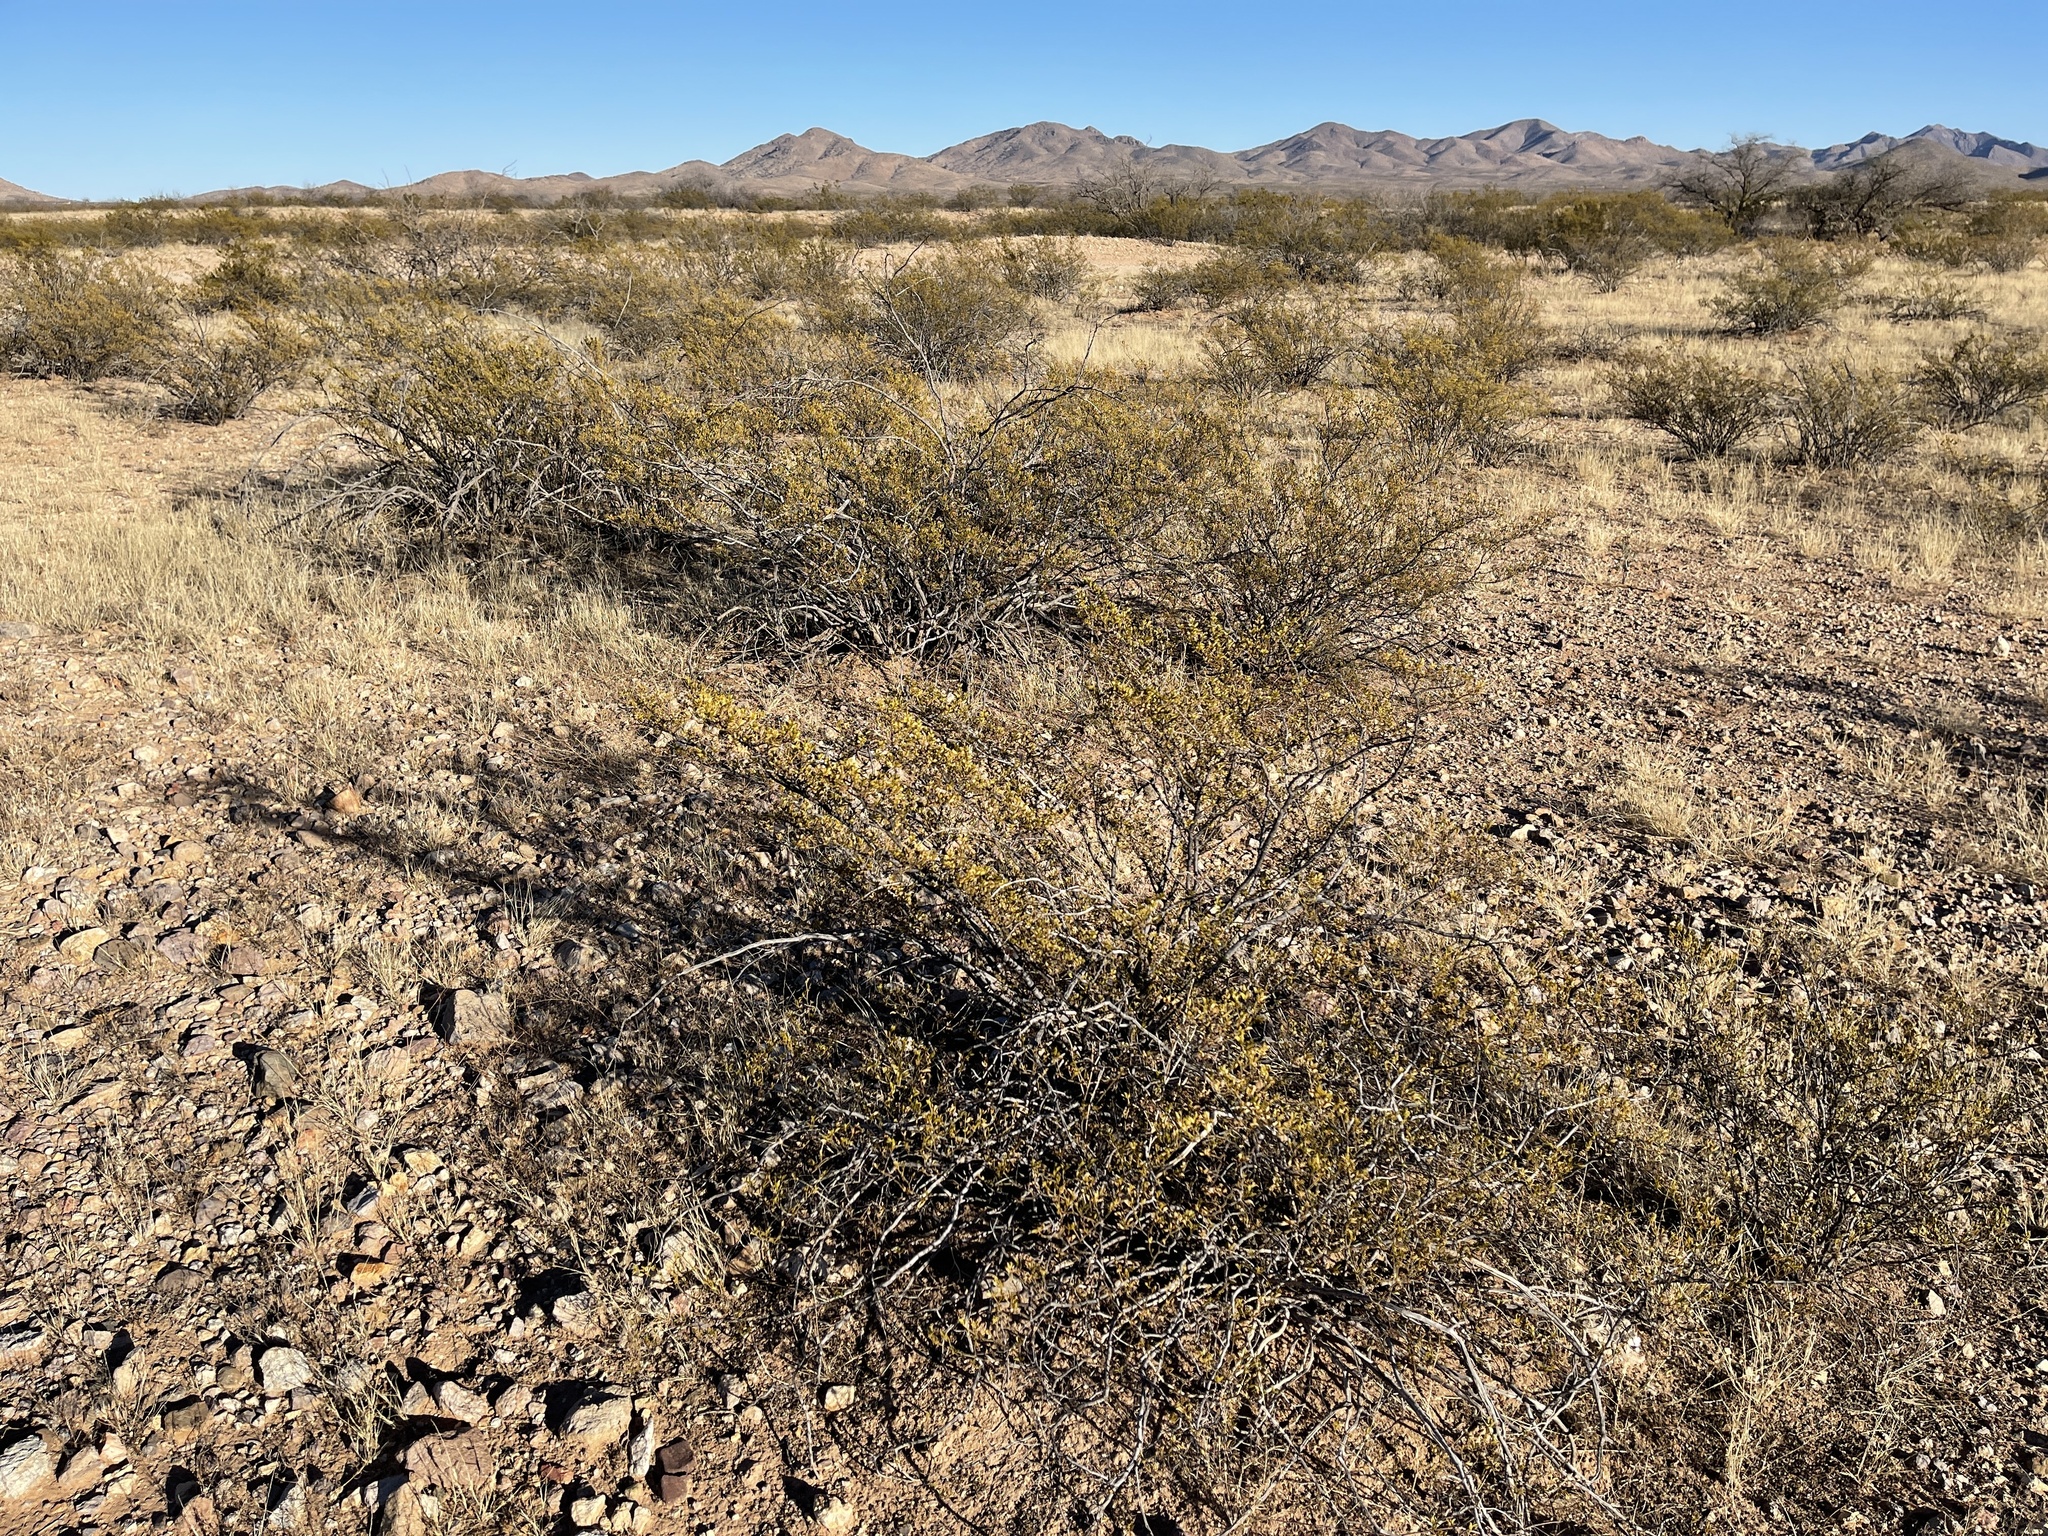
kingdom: Plantae
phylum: Tracheophyta
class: Magnoliopsida
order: Zygophyllales
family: Zygophyllaceae
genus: Larrea
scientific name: Larrea tridentata
